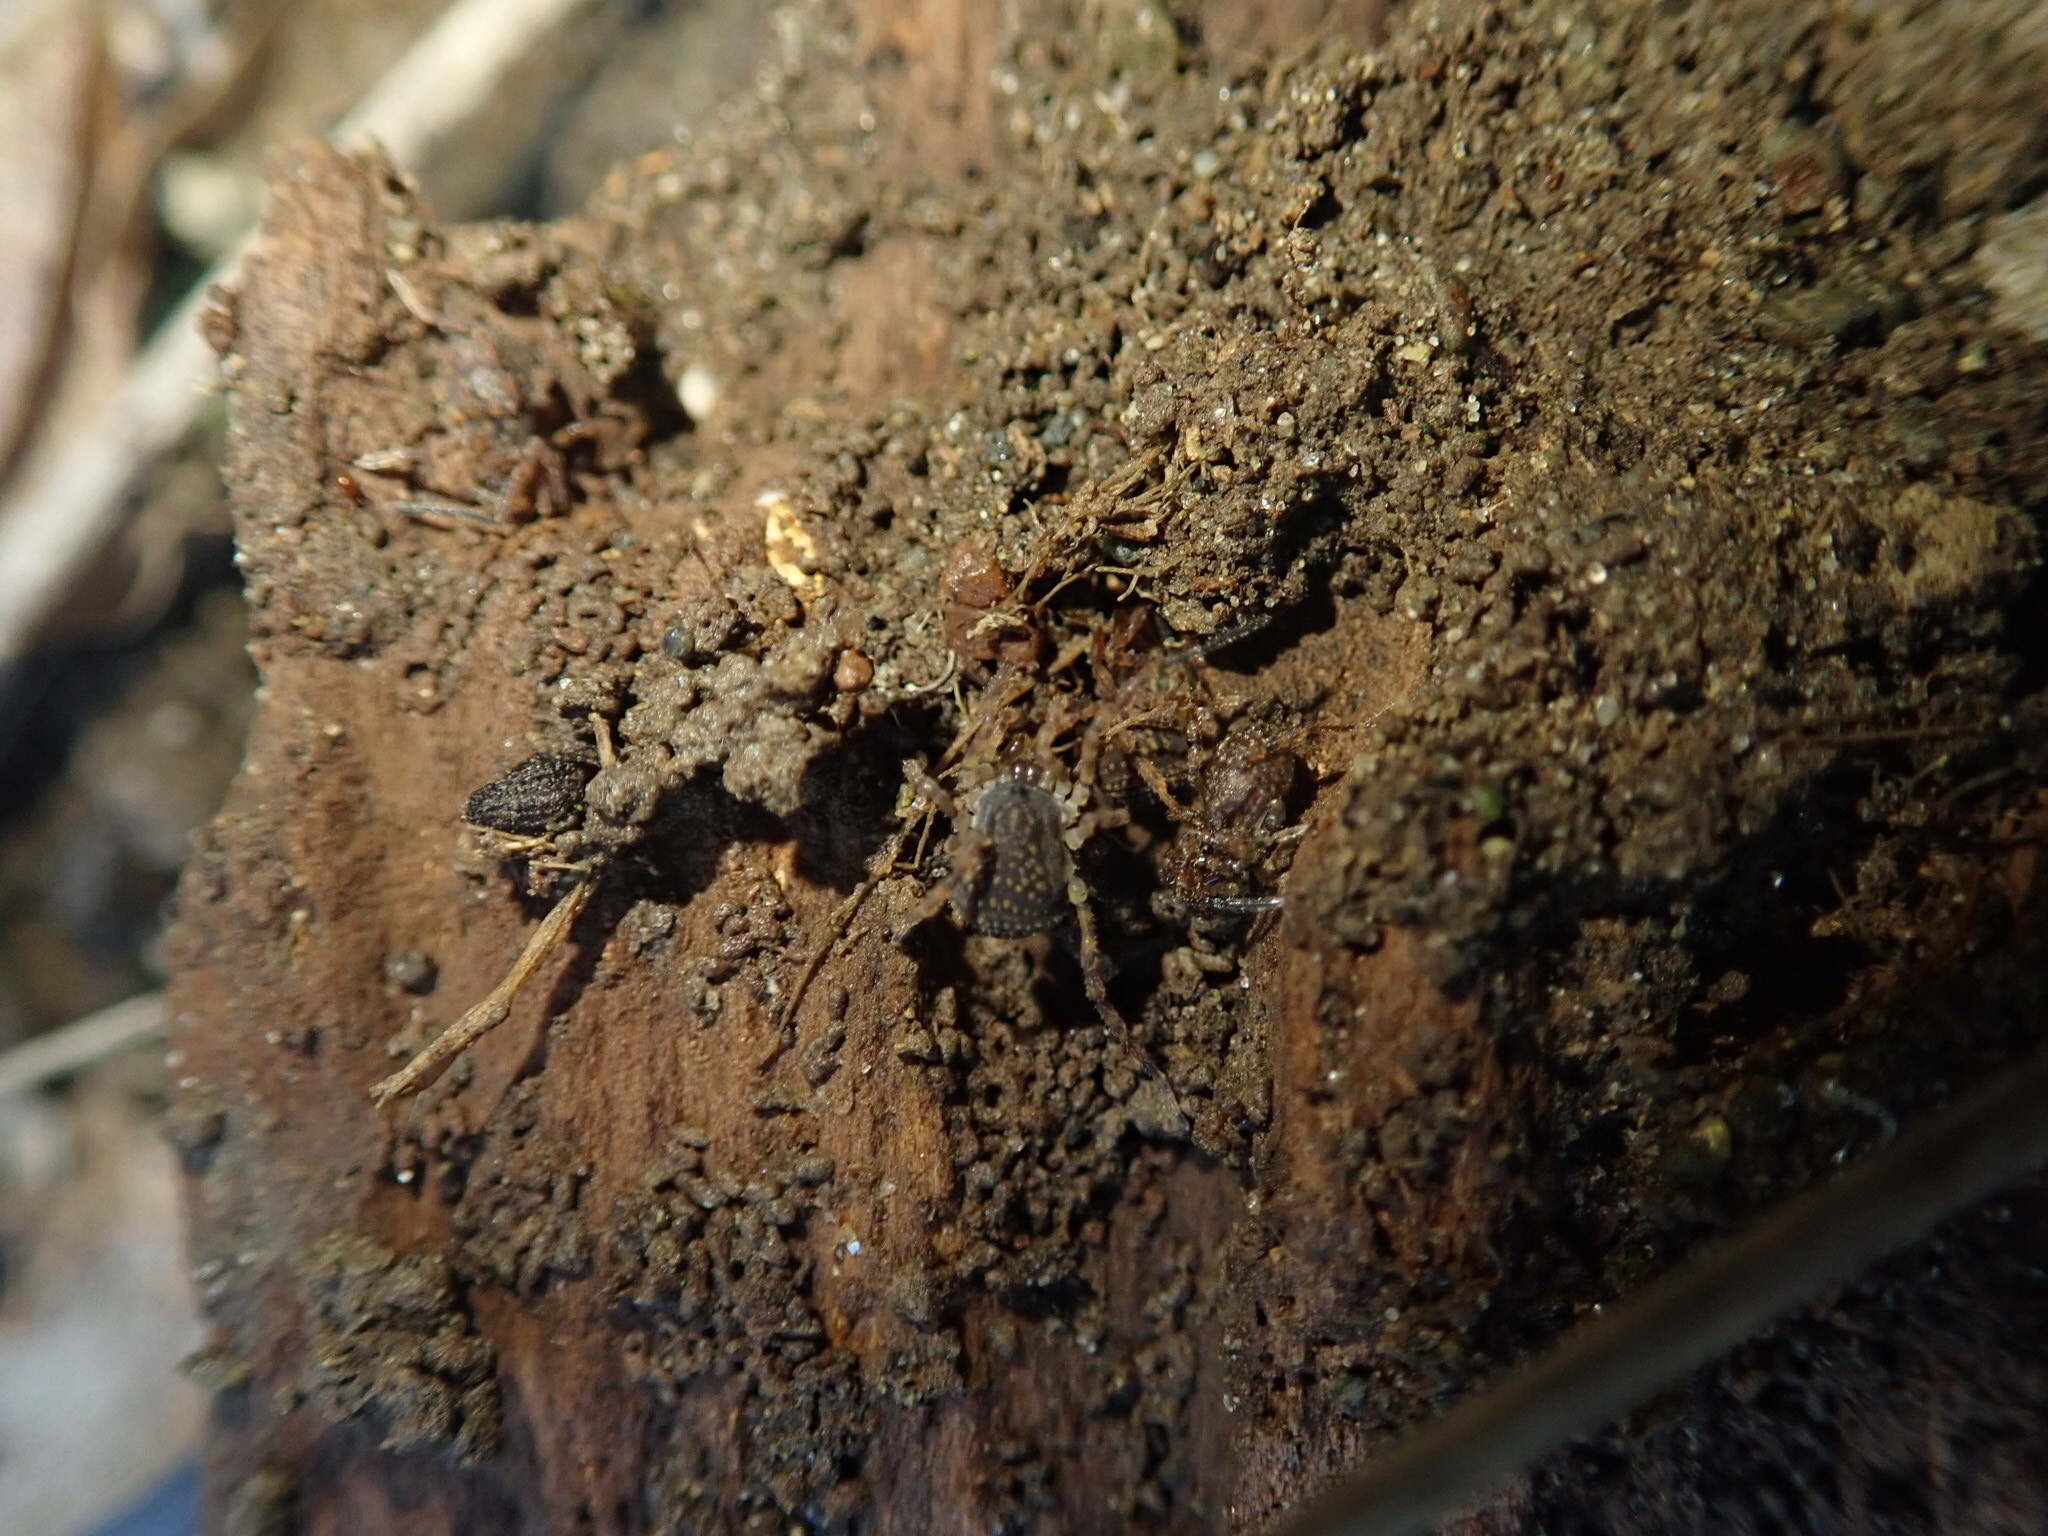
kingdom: Animalia
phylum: Arthropoda
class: Arachnida
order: Opiliones
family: Triaenonychidae
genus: Hendea
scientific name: Hendea myersi
